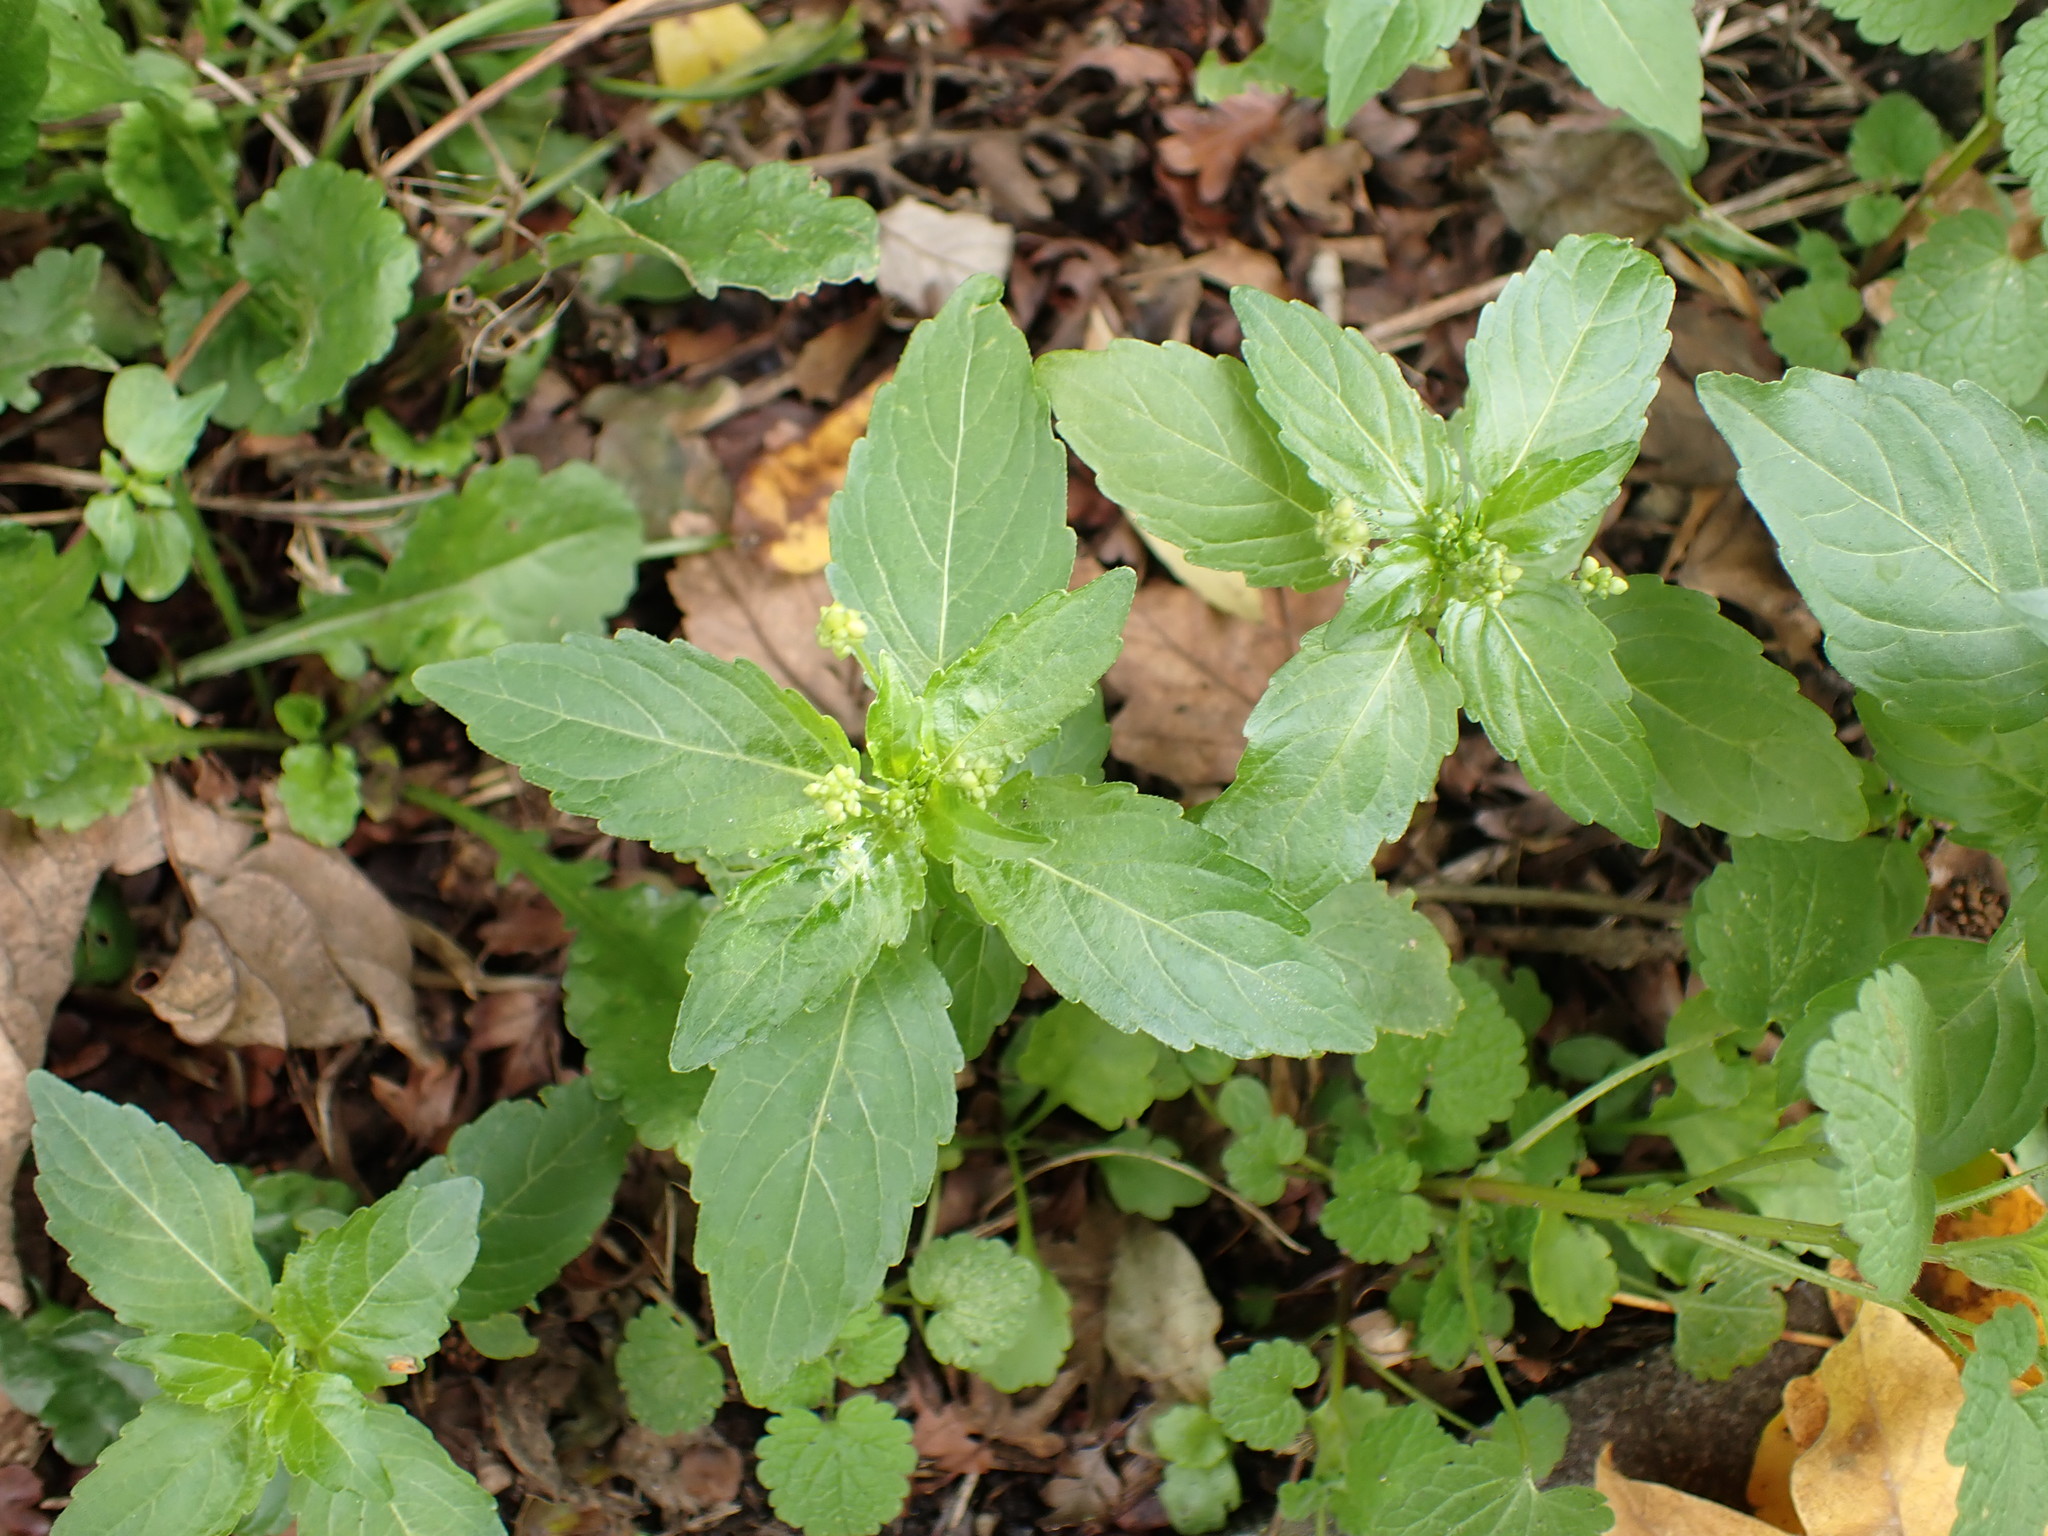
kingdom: Plantae
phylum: Tracheophyta
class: Magnoliopsida
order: Malpighiales
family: Euphorbiaceae
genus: Mercurialis
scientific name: Mercurialis annua
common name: Annual mercury
